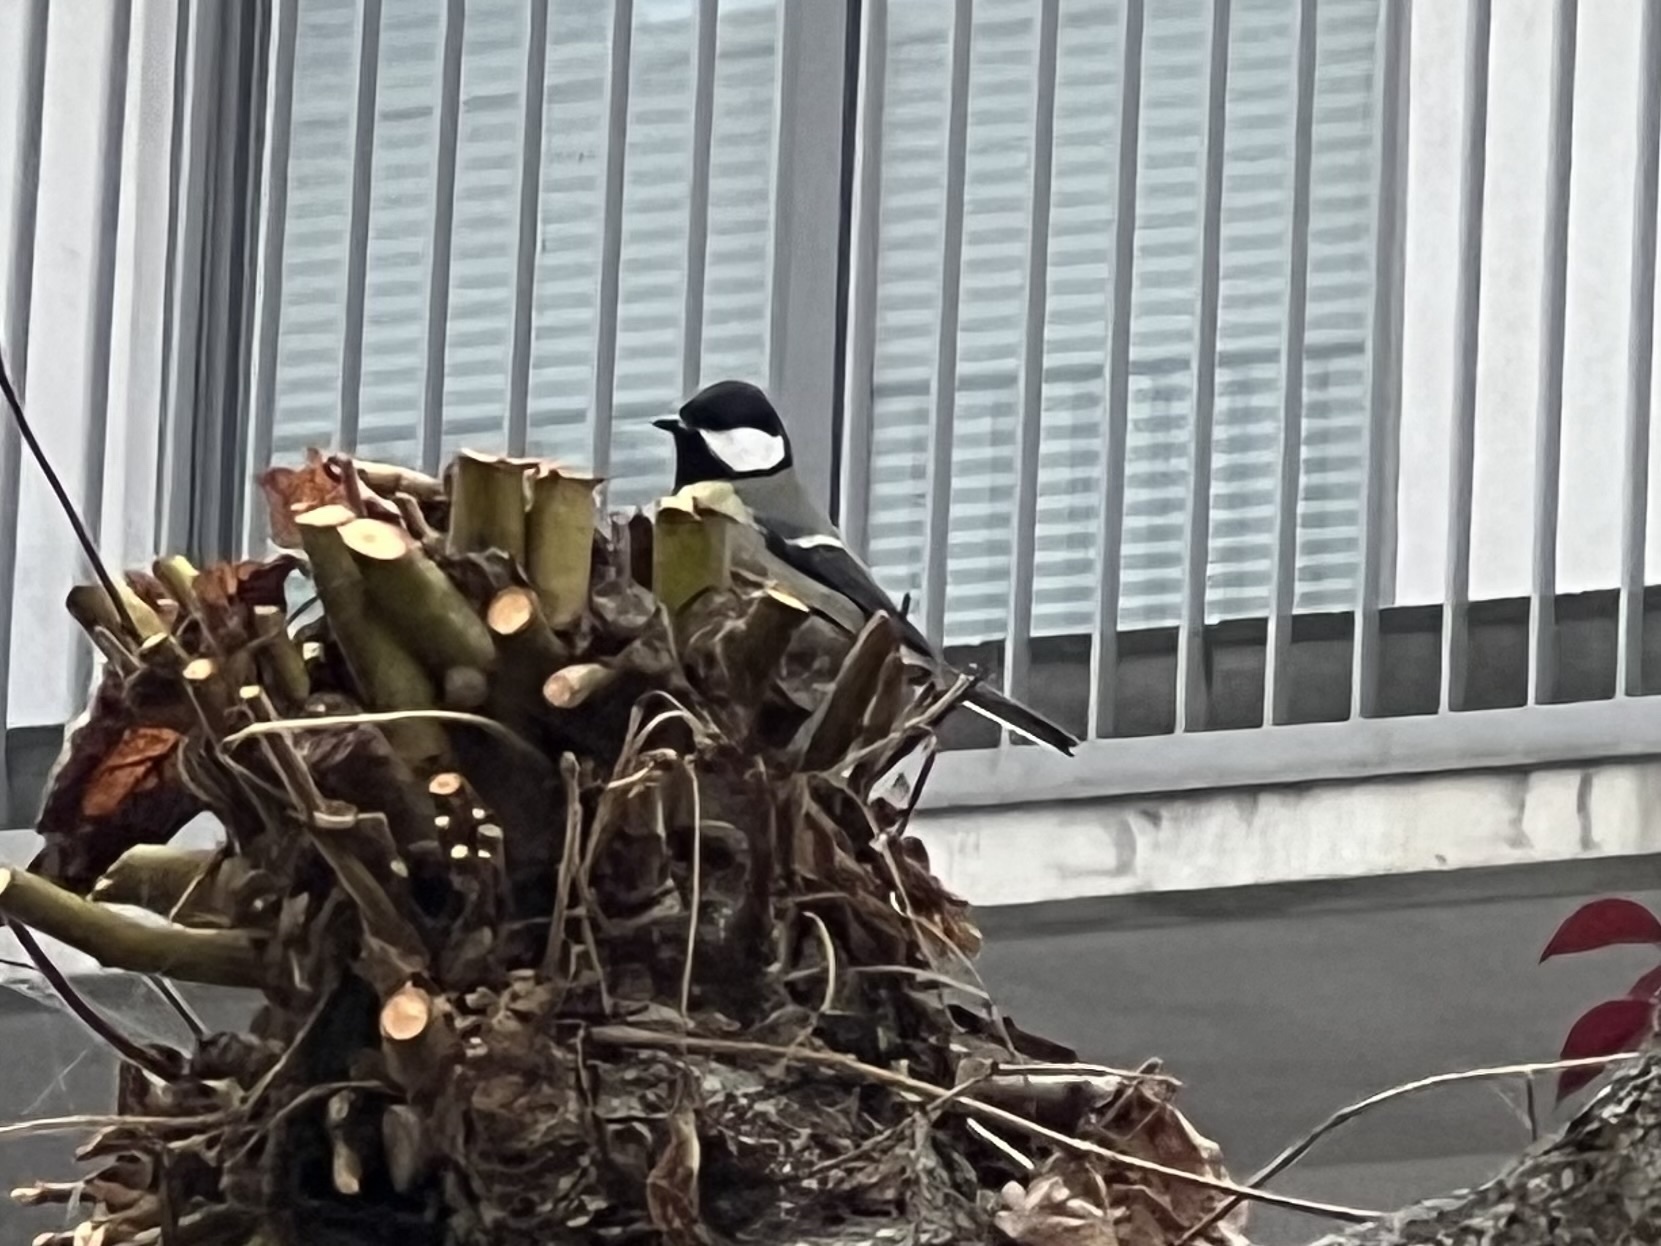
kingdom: Animalia
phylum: Chordata
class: Aves
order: Passeriformes
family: Paridae
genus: Parus
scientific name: Parus major
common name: Great tit
